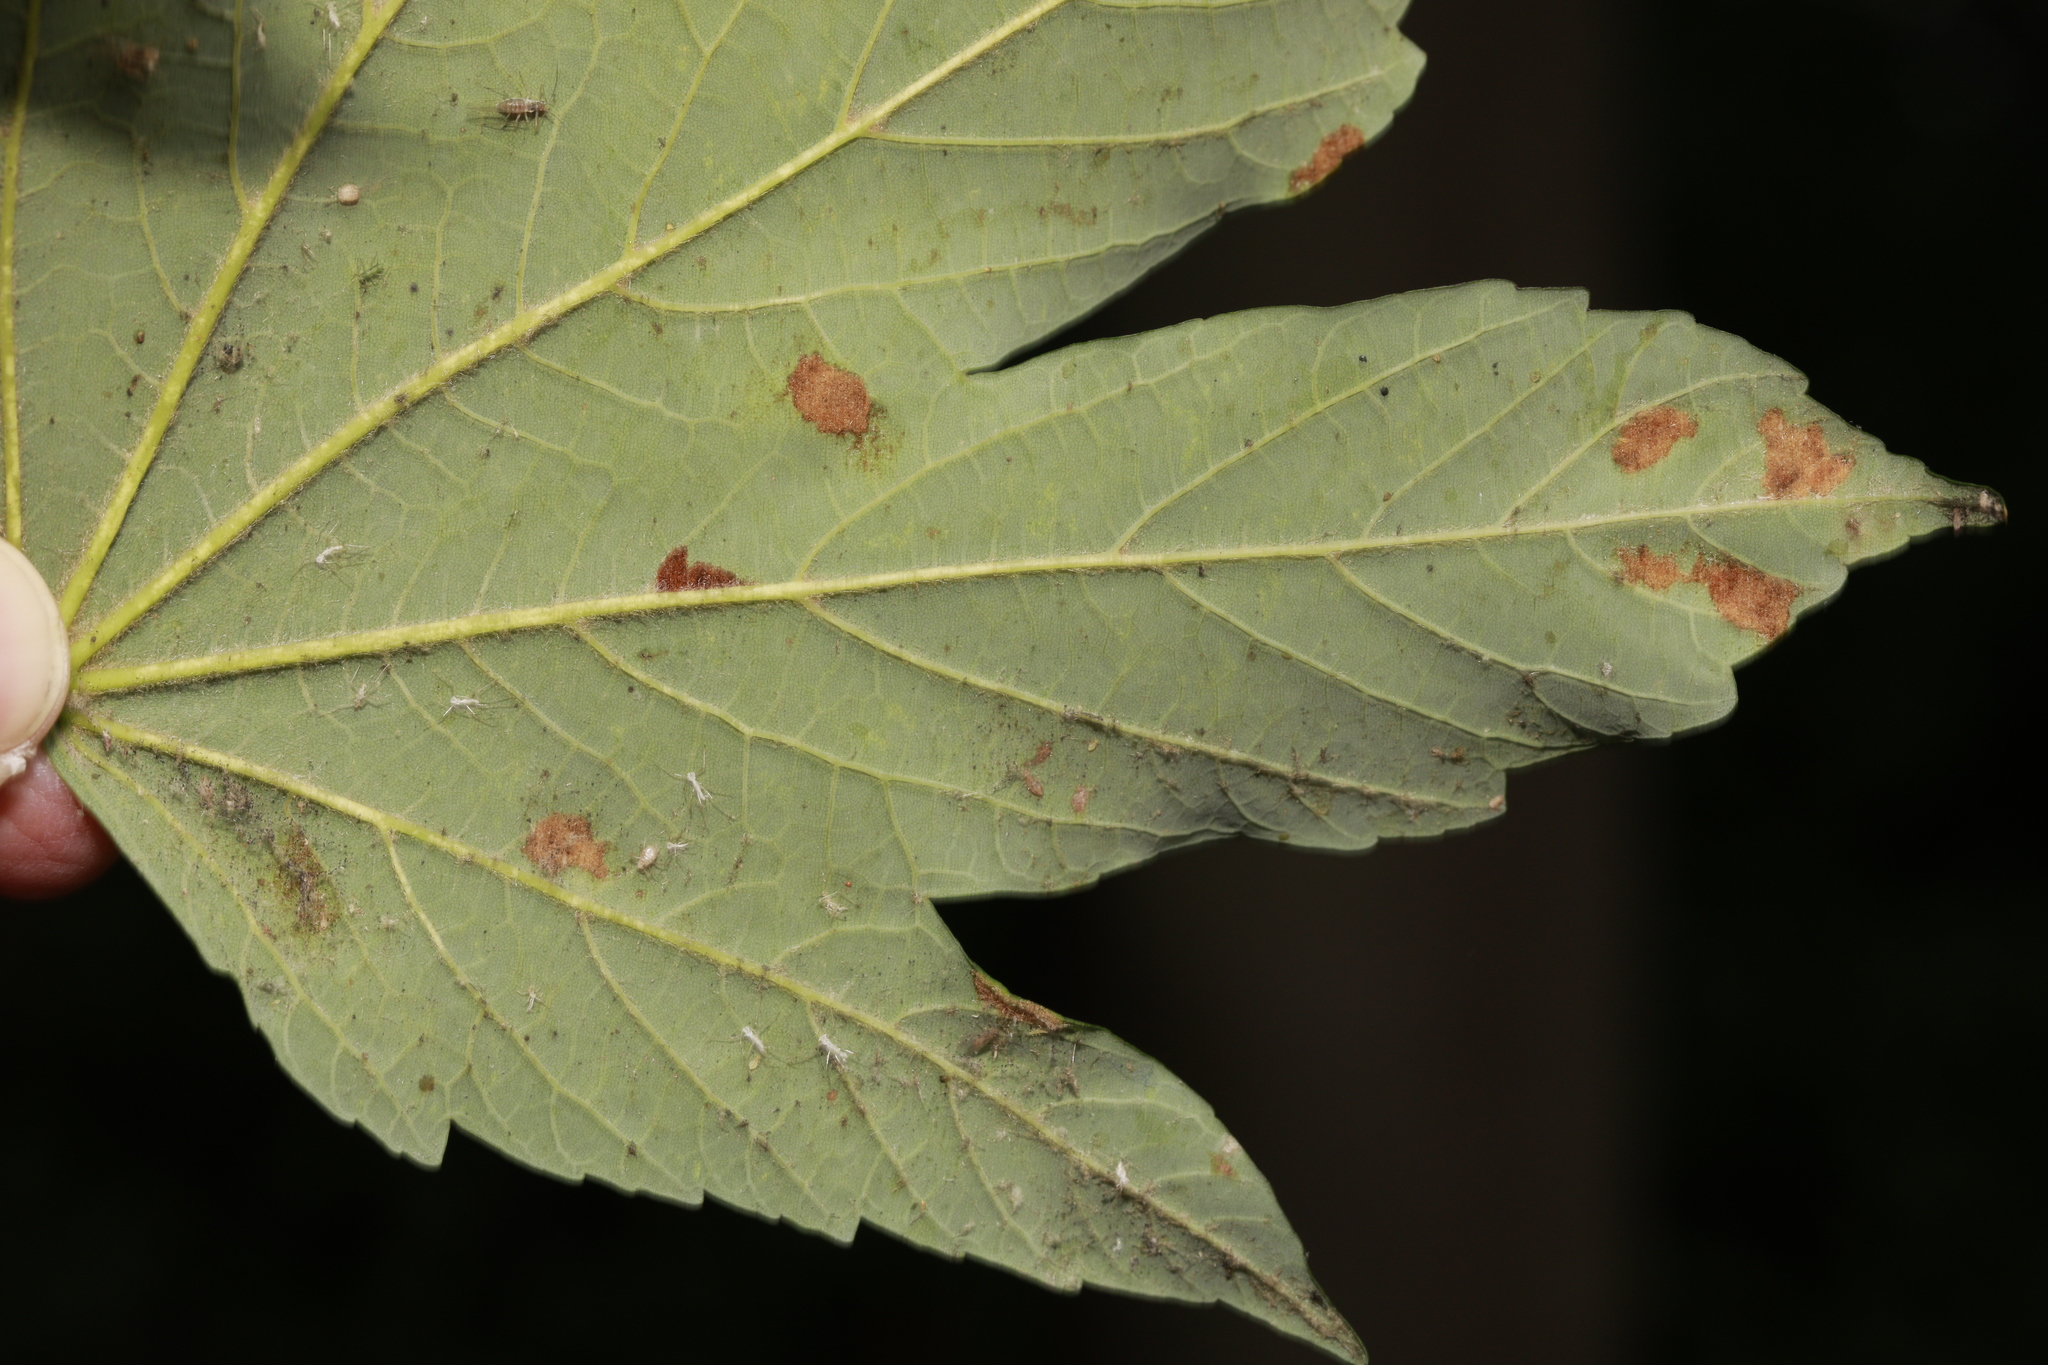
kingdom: Animalia
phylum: Arthropoda
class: Arachnida
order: Trombidiformes
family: Eriophyidae
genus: Aceria
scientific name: Aceria pseudoplatani
